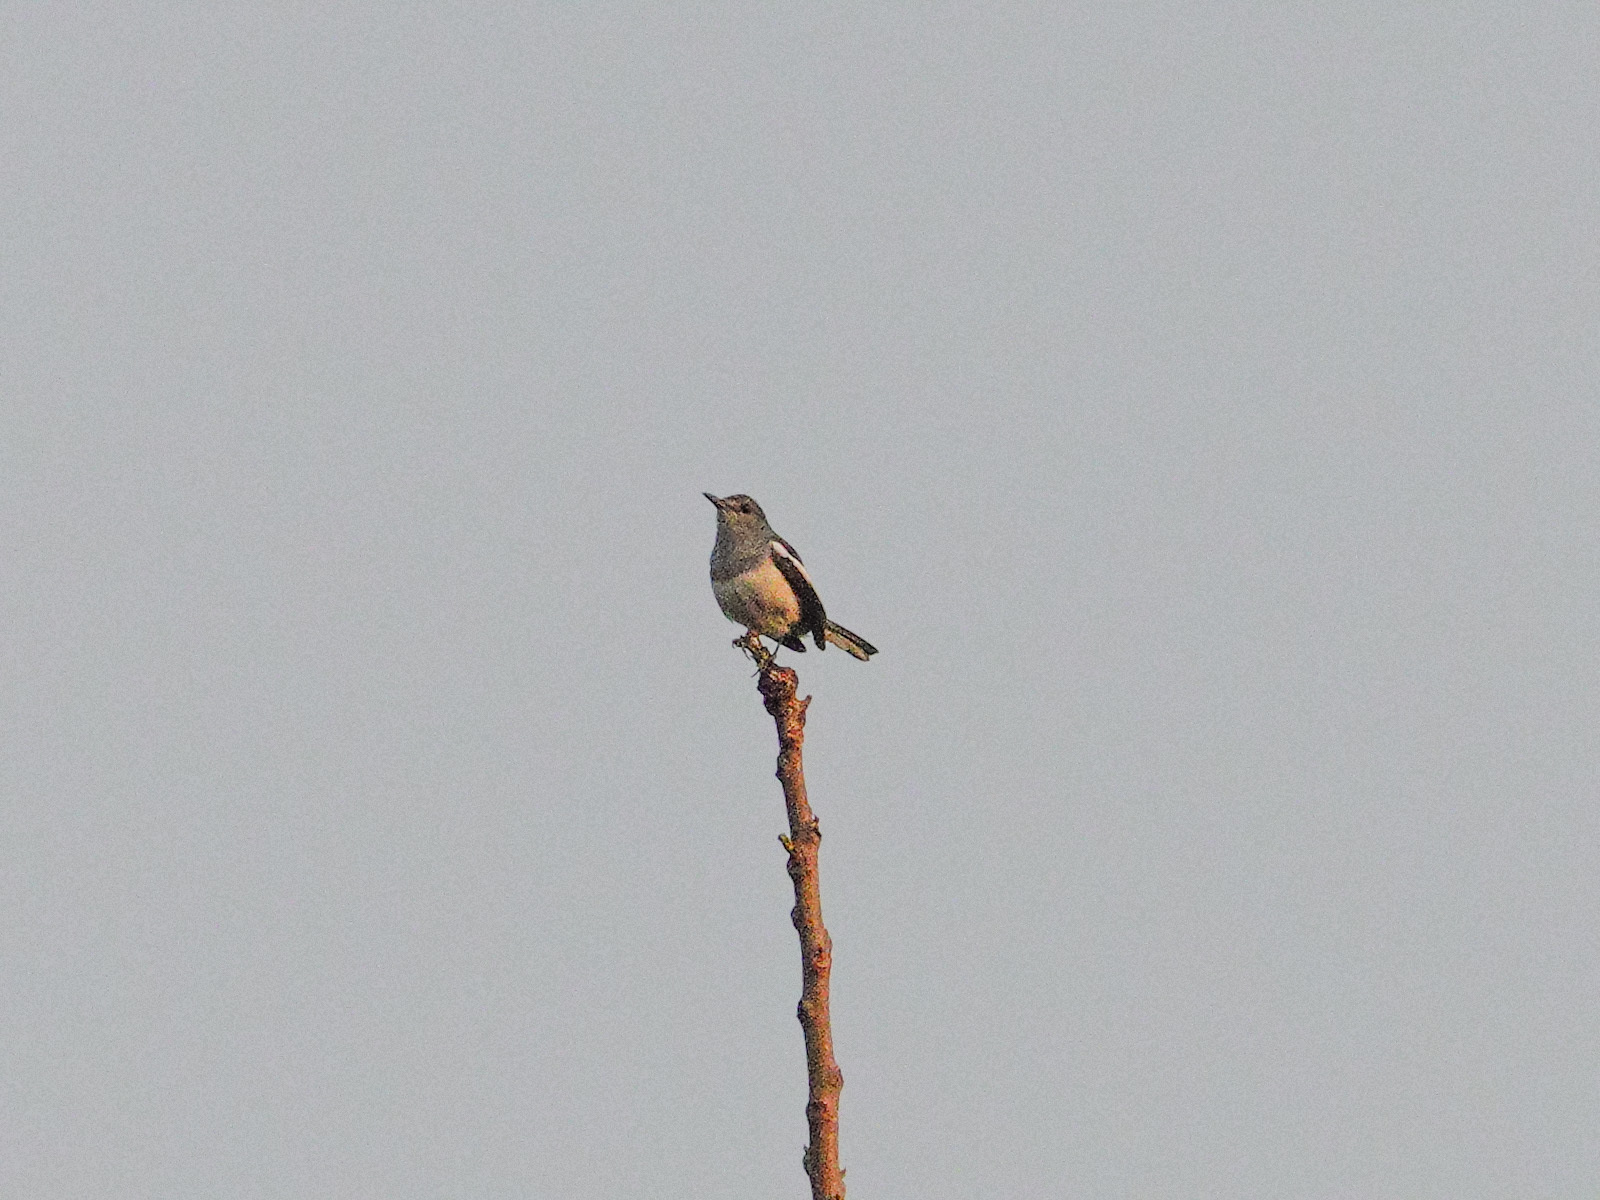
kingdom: Animalia
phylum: Chordata
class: Aves
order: Passeriformes
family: Muscicapidae
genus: Copsychus
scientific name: Copsychus saularis
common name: Oriental magpie-robin
